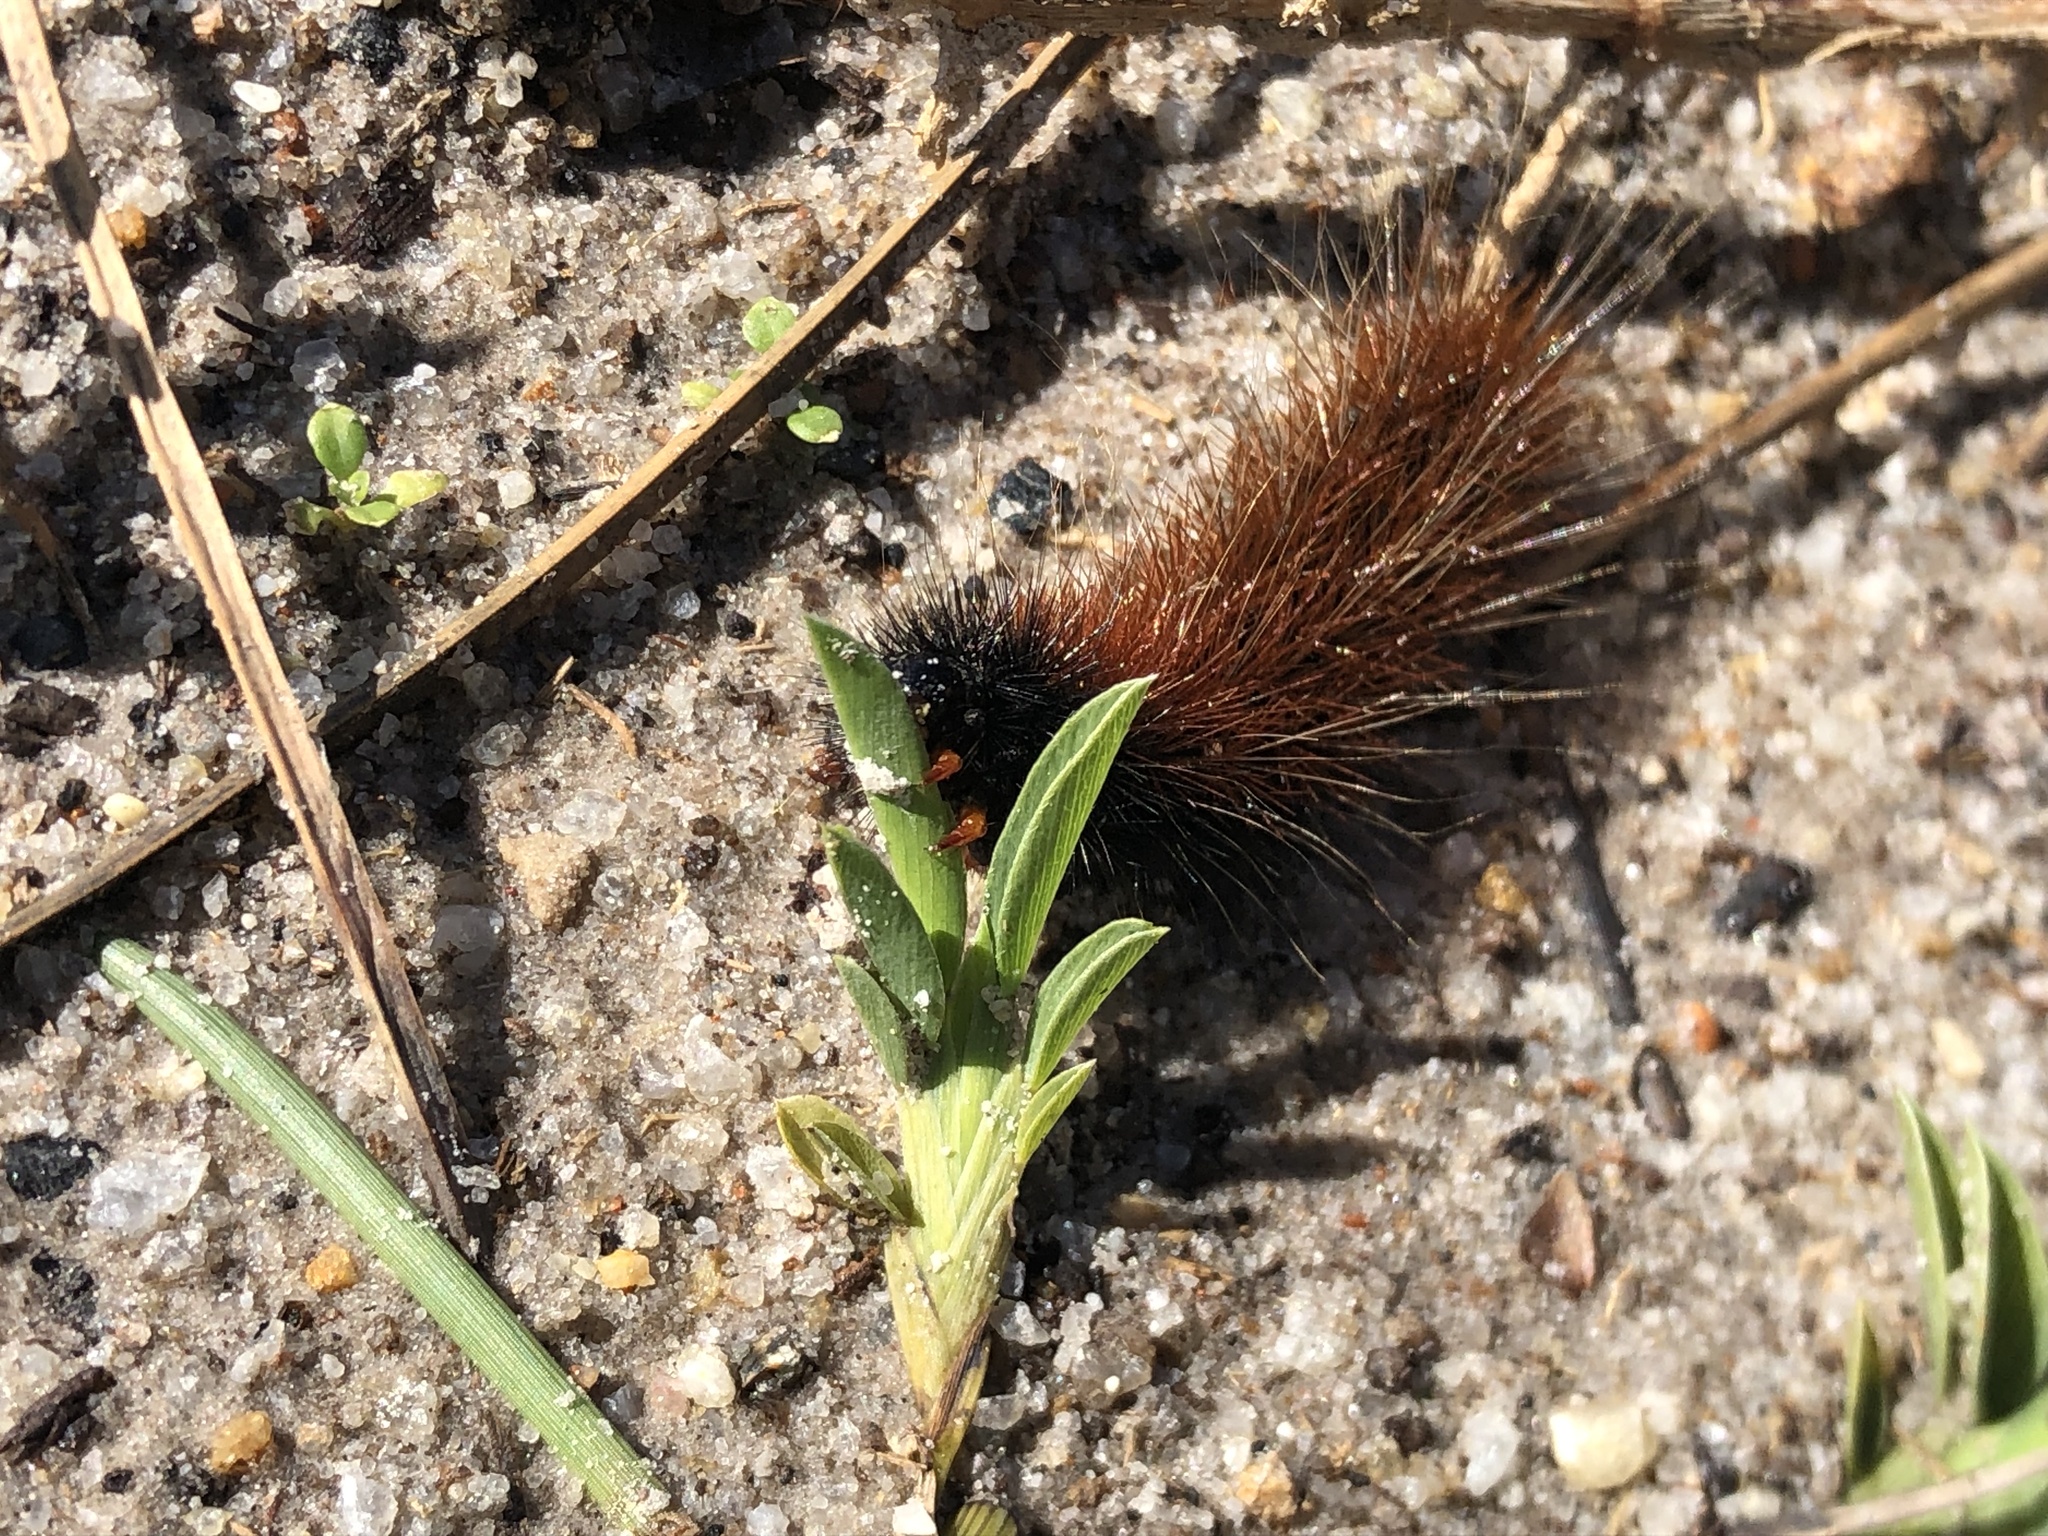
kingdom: Animalia
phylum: Arthropoda
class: Insecta
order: Lepidoptera
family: Erebidae
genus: Rhodogastria
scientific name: Rhodogastria amasis
